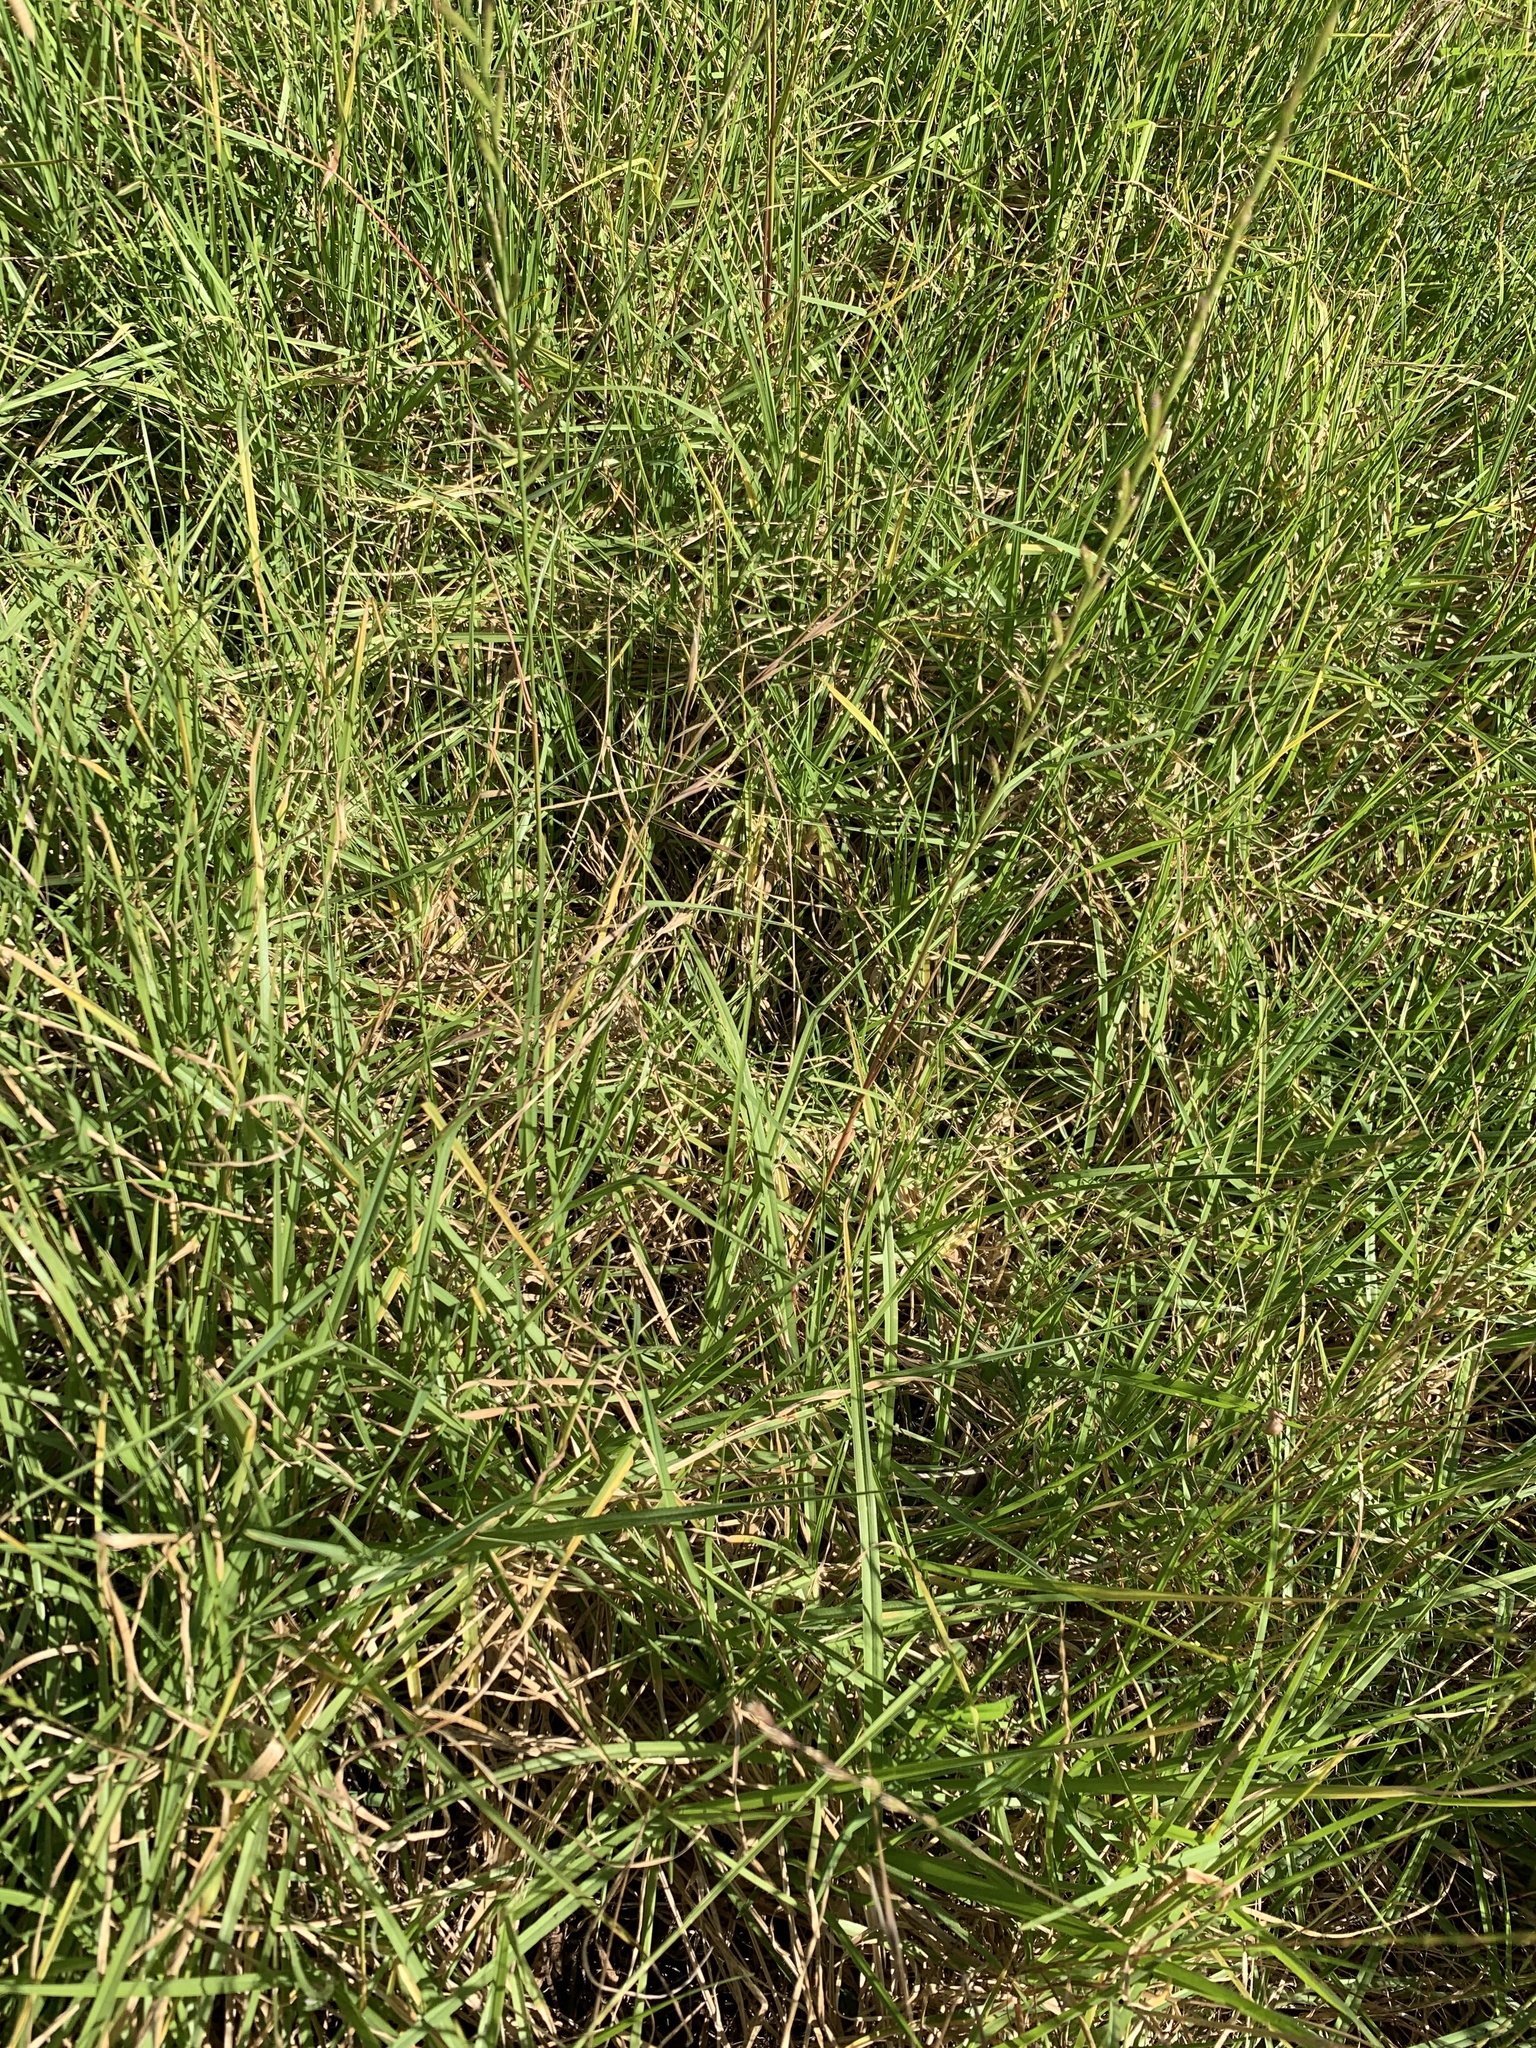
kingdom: Plantae
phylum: Tracheophyta
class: Liliopsida
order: Poales
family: Poaceae
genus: Cenchrus
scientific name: Cenchrus clandestinus
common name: Kikuyugrass
